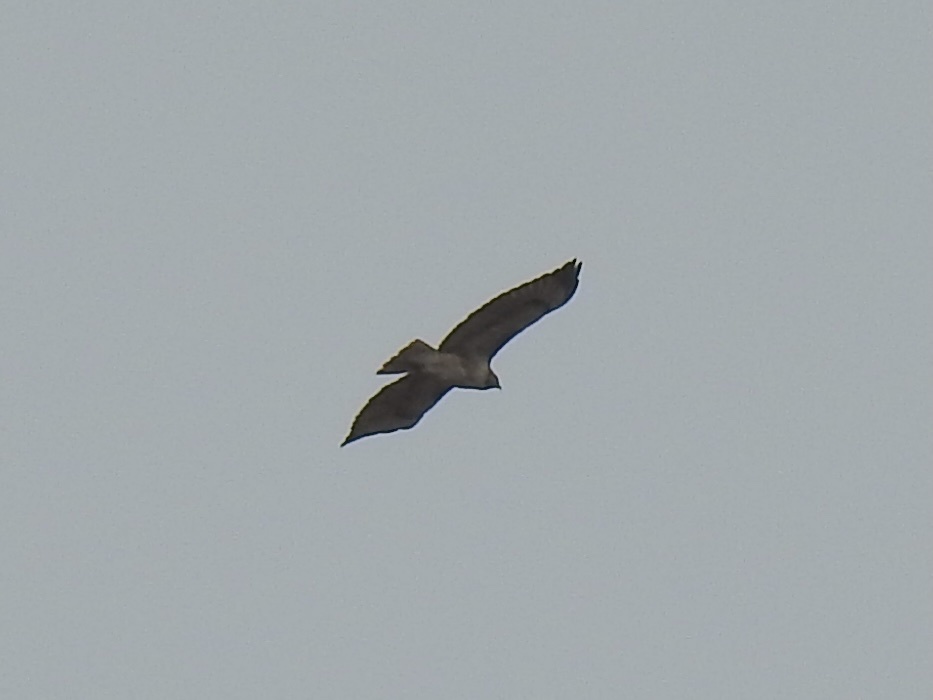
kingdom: Animalia
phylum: Chordata
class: Aves
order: Accipitriformes
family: Accipitridae
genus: Buteo
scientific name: Buteo jamaicensis
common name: Red-tailed hawk
